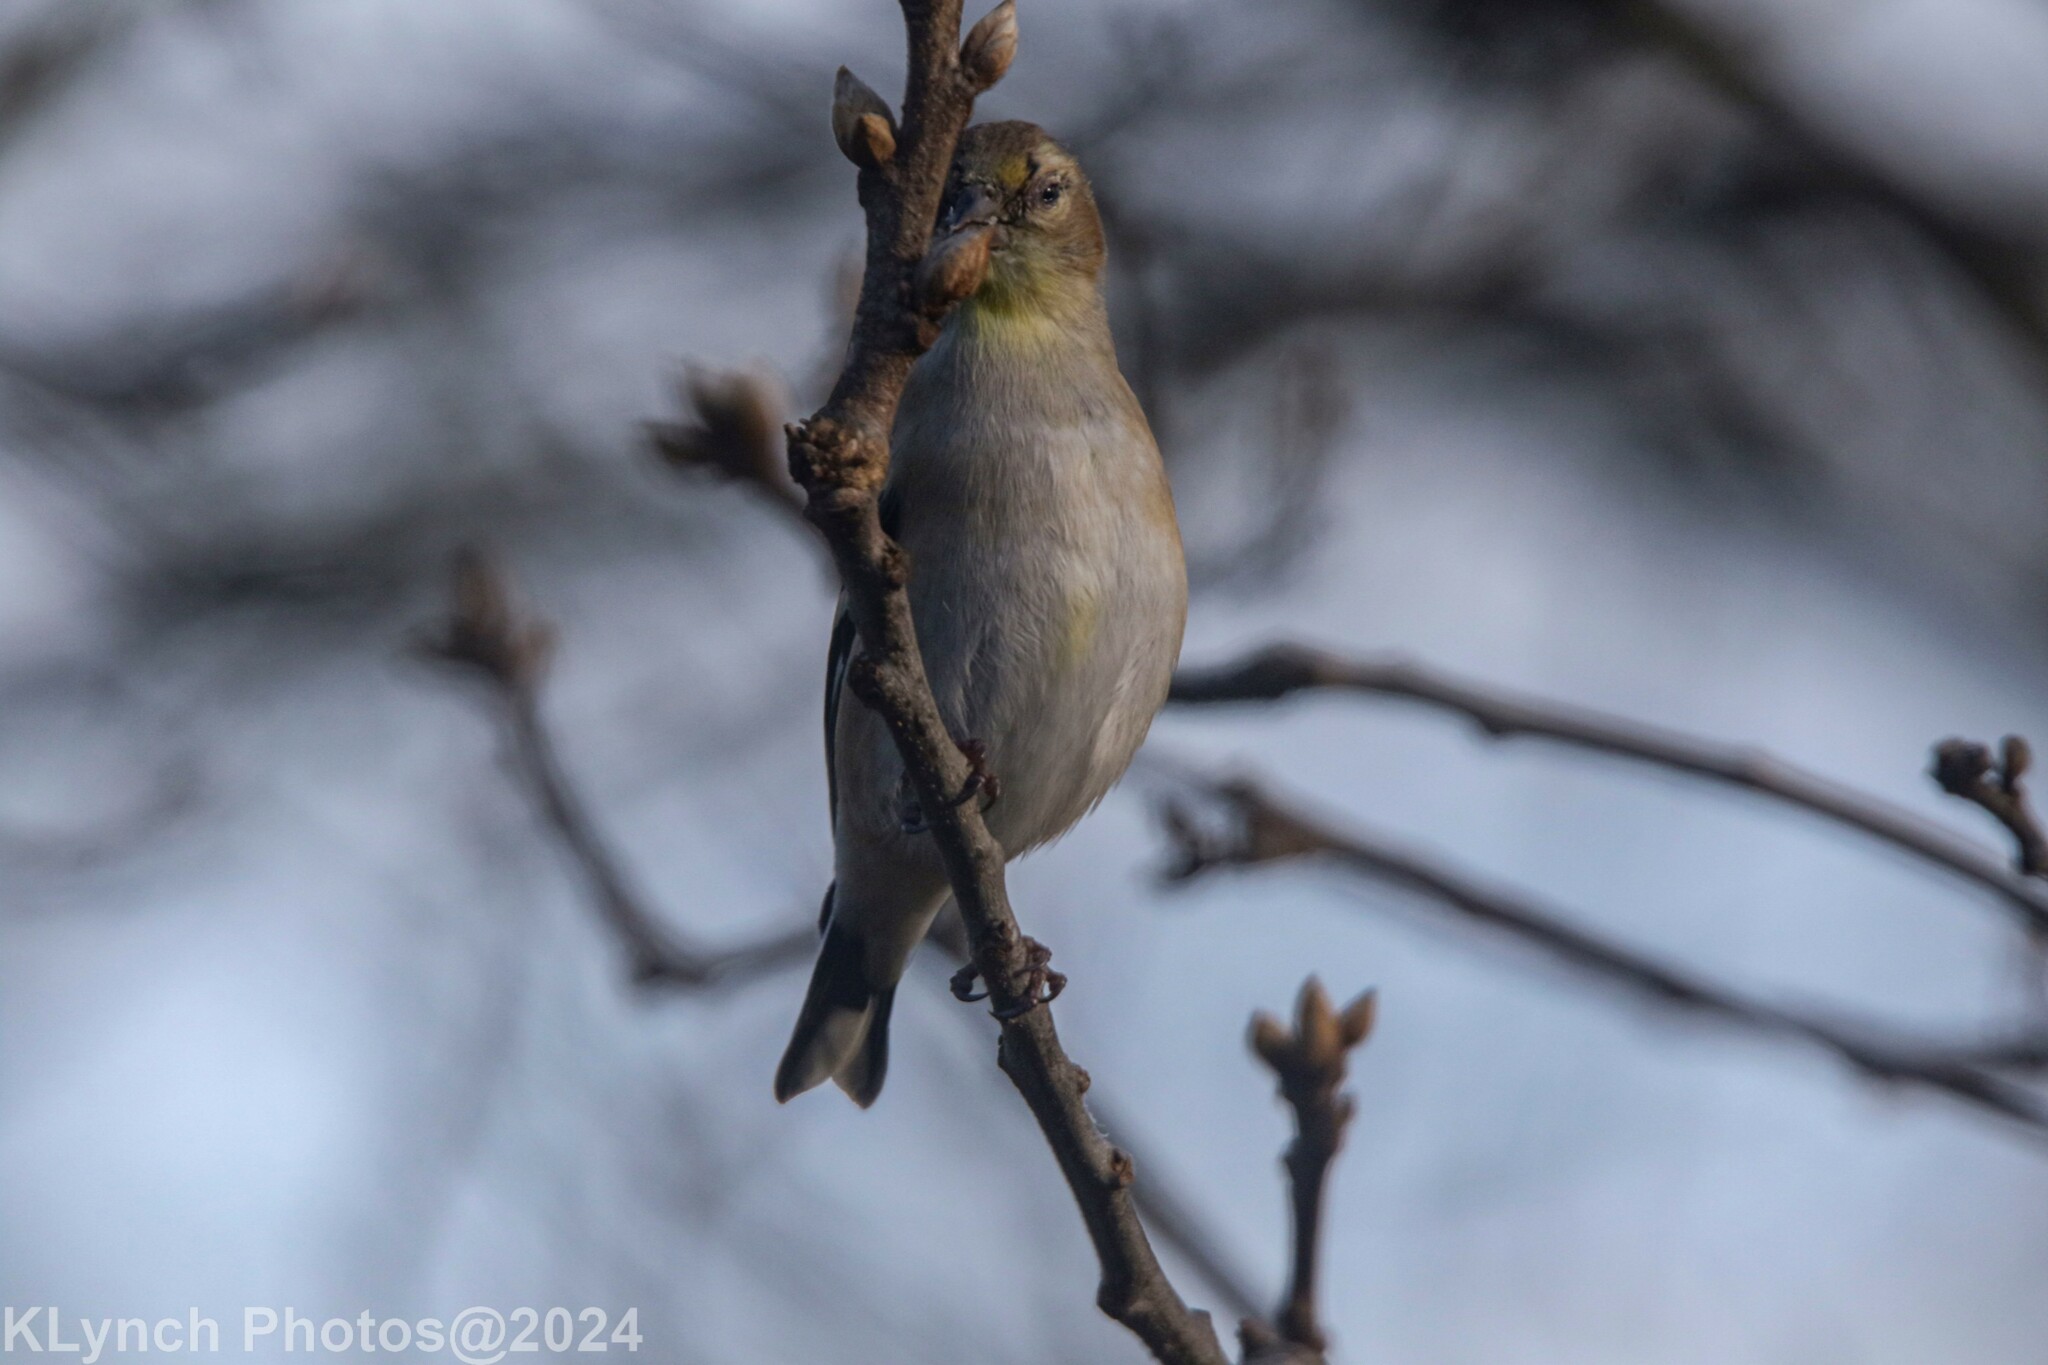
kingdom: Animalia
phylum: Chordata
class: Aves
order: Passeriformes
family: Fringillidae
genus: Spinus
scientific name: Spinus tristis
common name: American goldfinch
